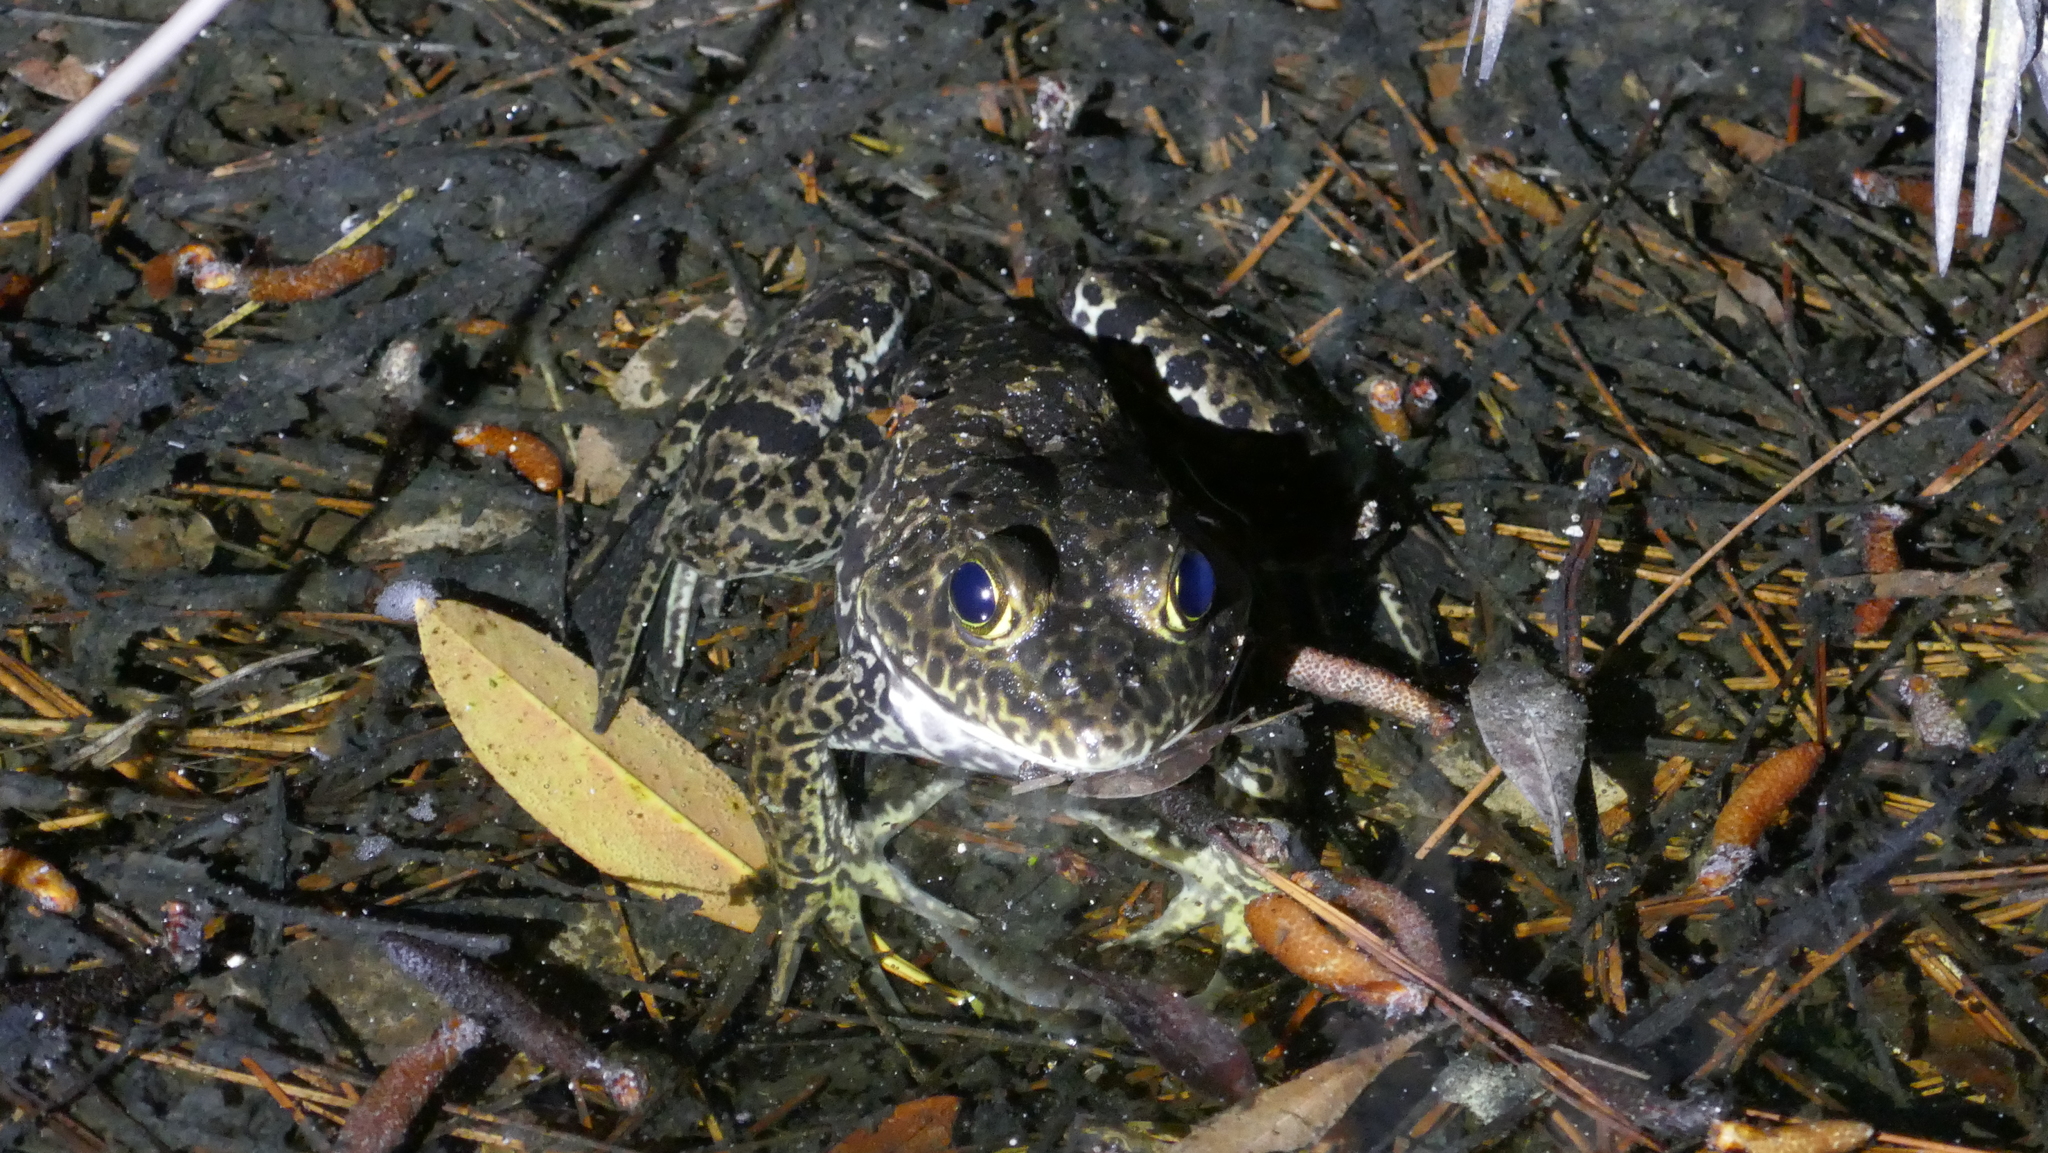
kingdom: Animalia
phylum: Chordata
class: Amphibia
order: Anura
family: Ranidae
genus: Lithobates
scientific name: Lithobates catesbeianus
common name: American bullfrog
